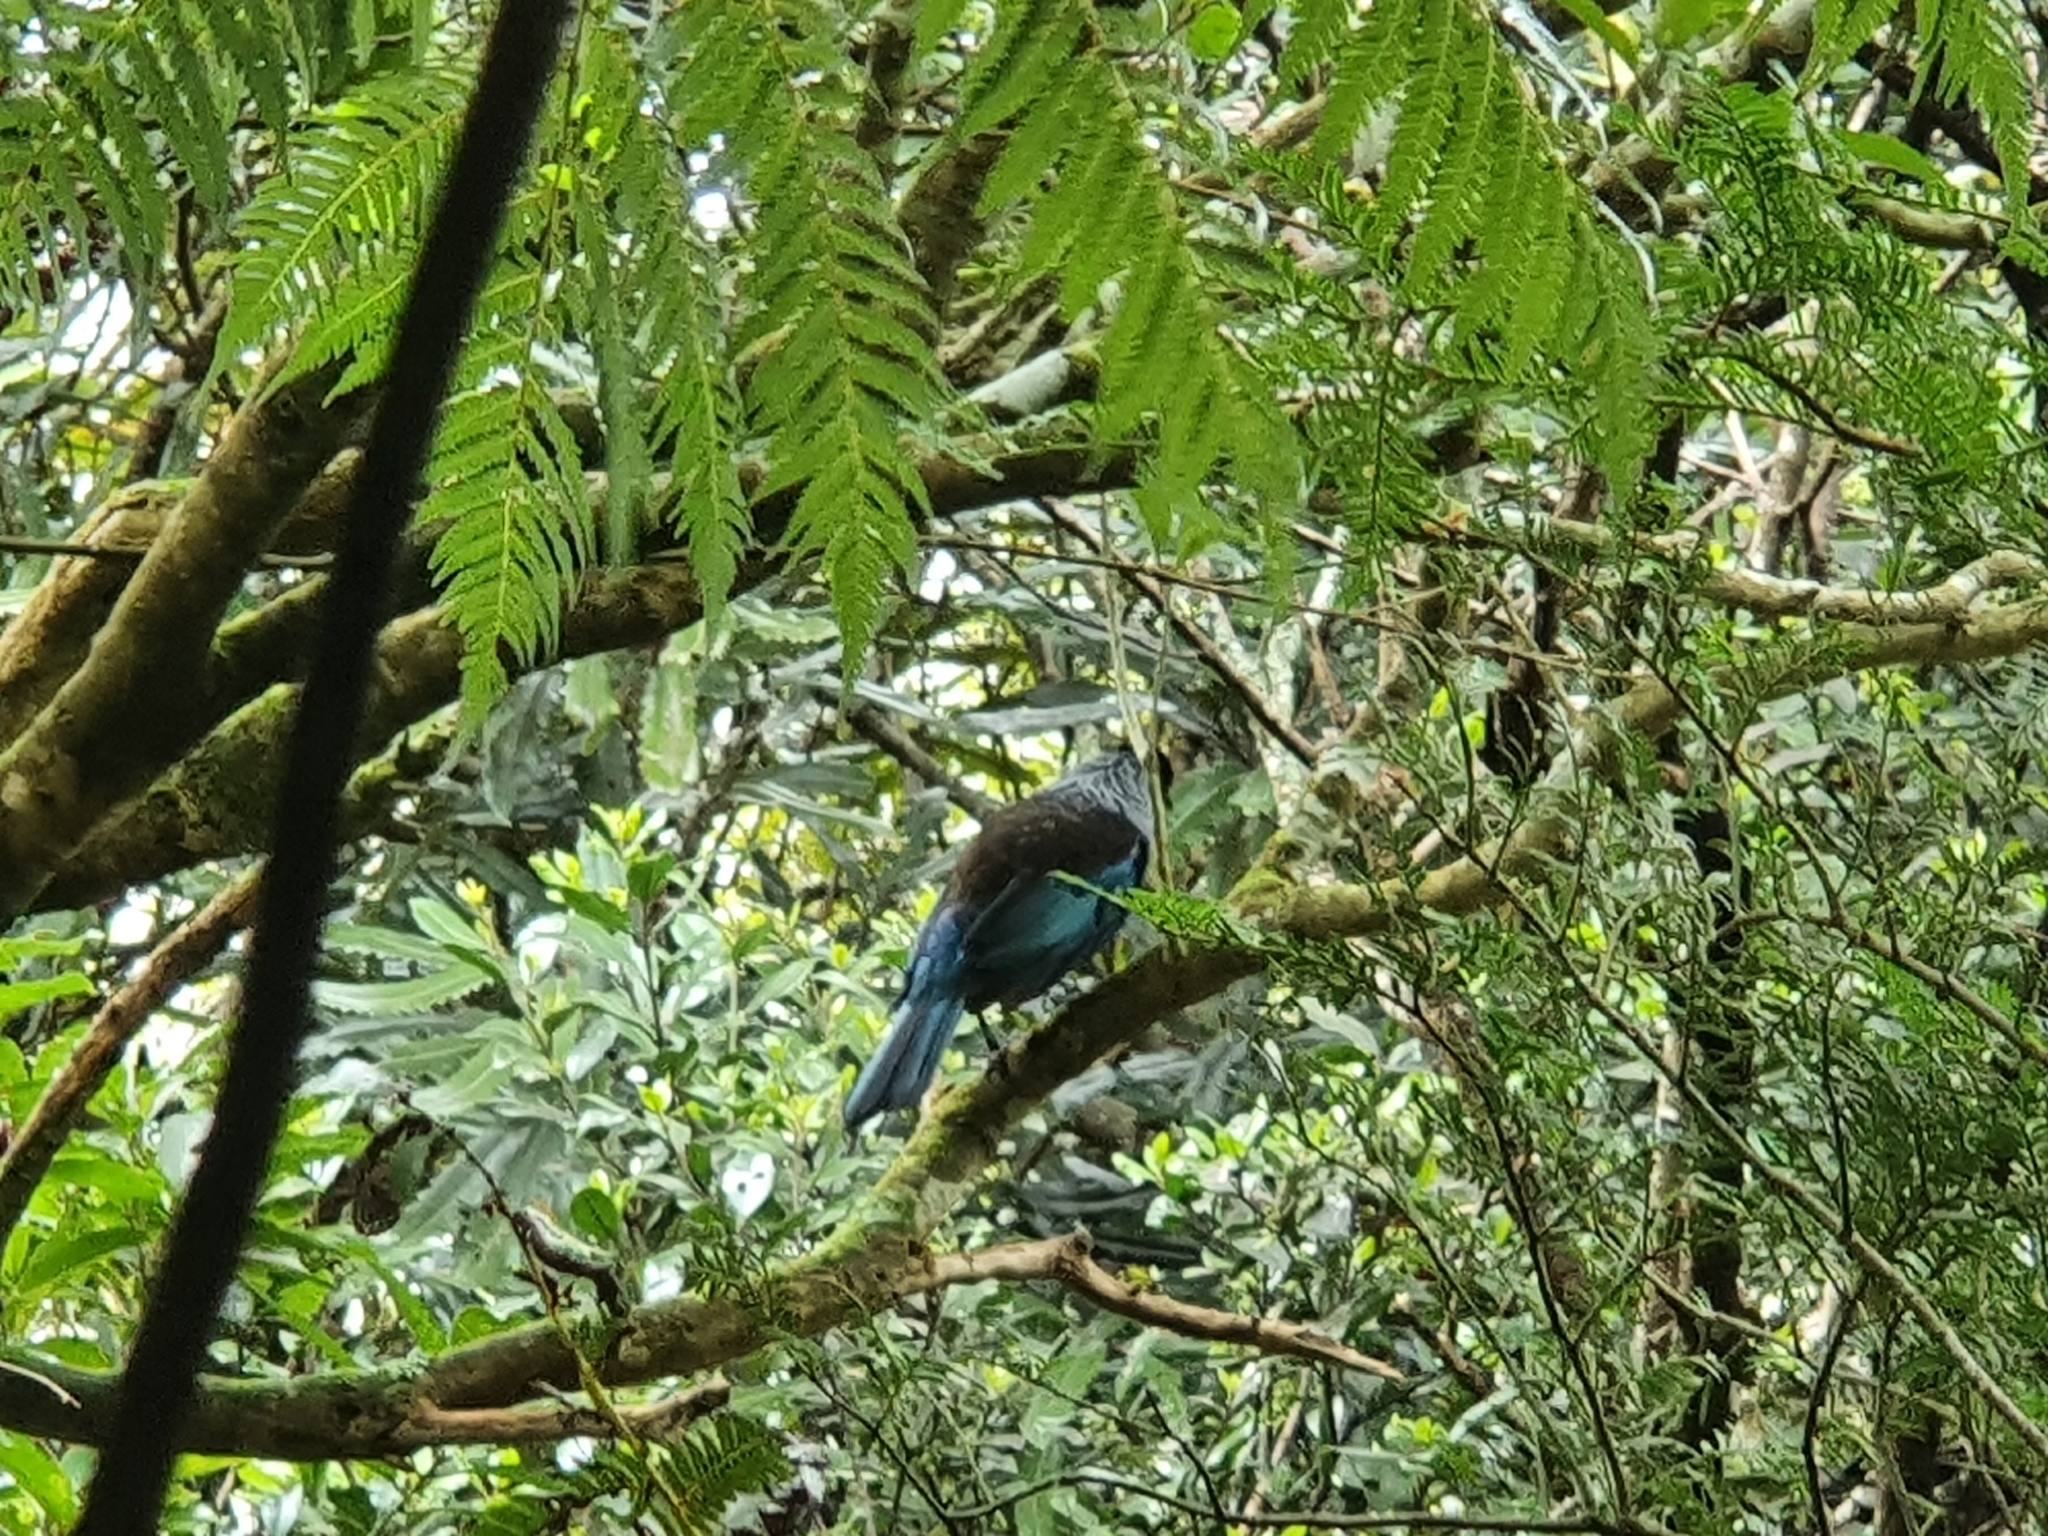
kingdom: Animalia
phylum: Chordata
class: Aves
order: Passeriformes
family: Meliphagidae
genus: Prosthemadera
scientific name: Prosthemadera novaeseelandiae
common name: Tui
